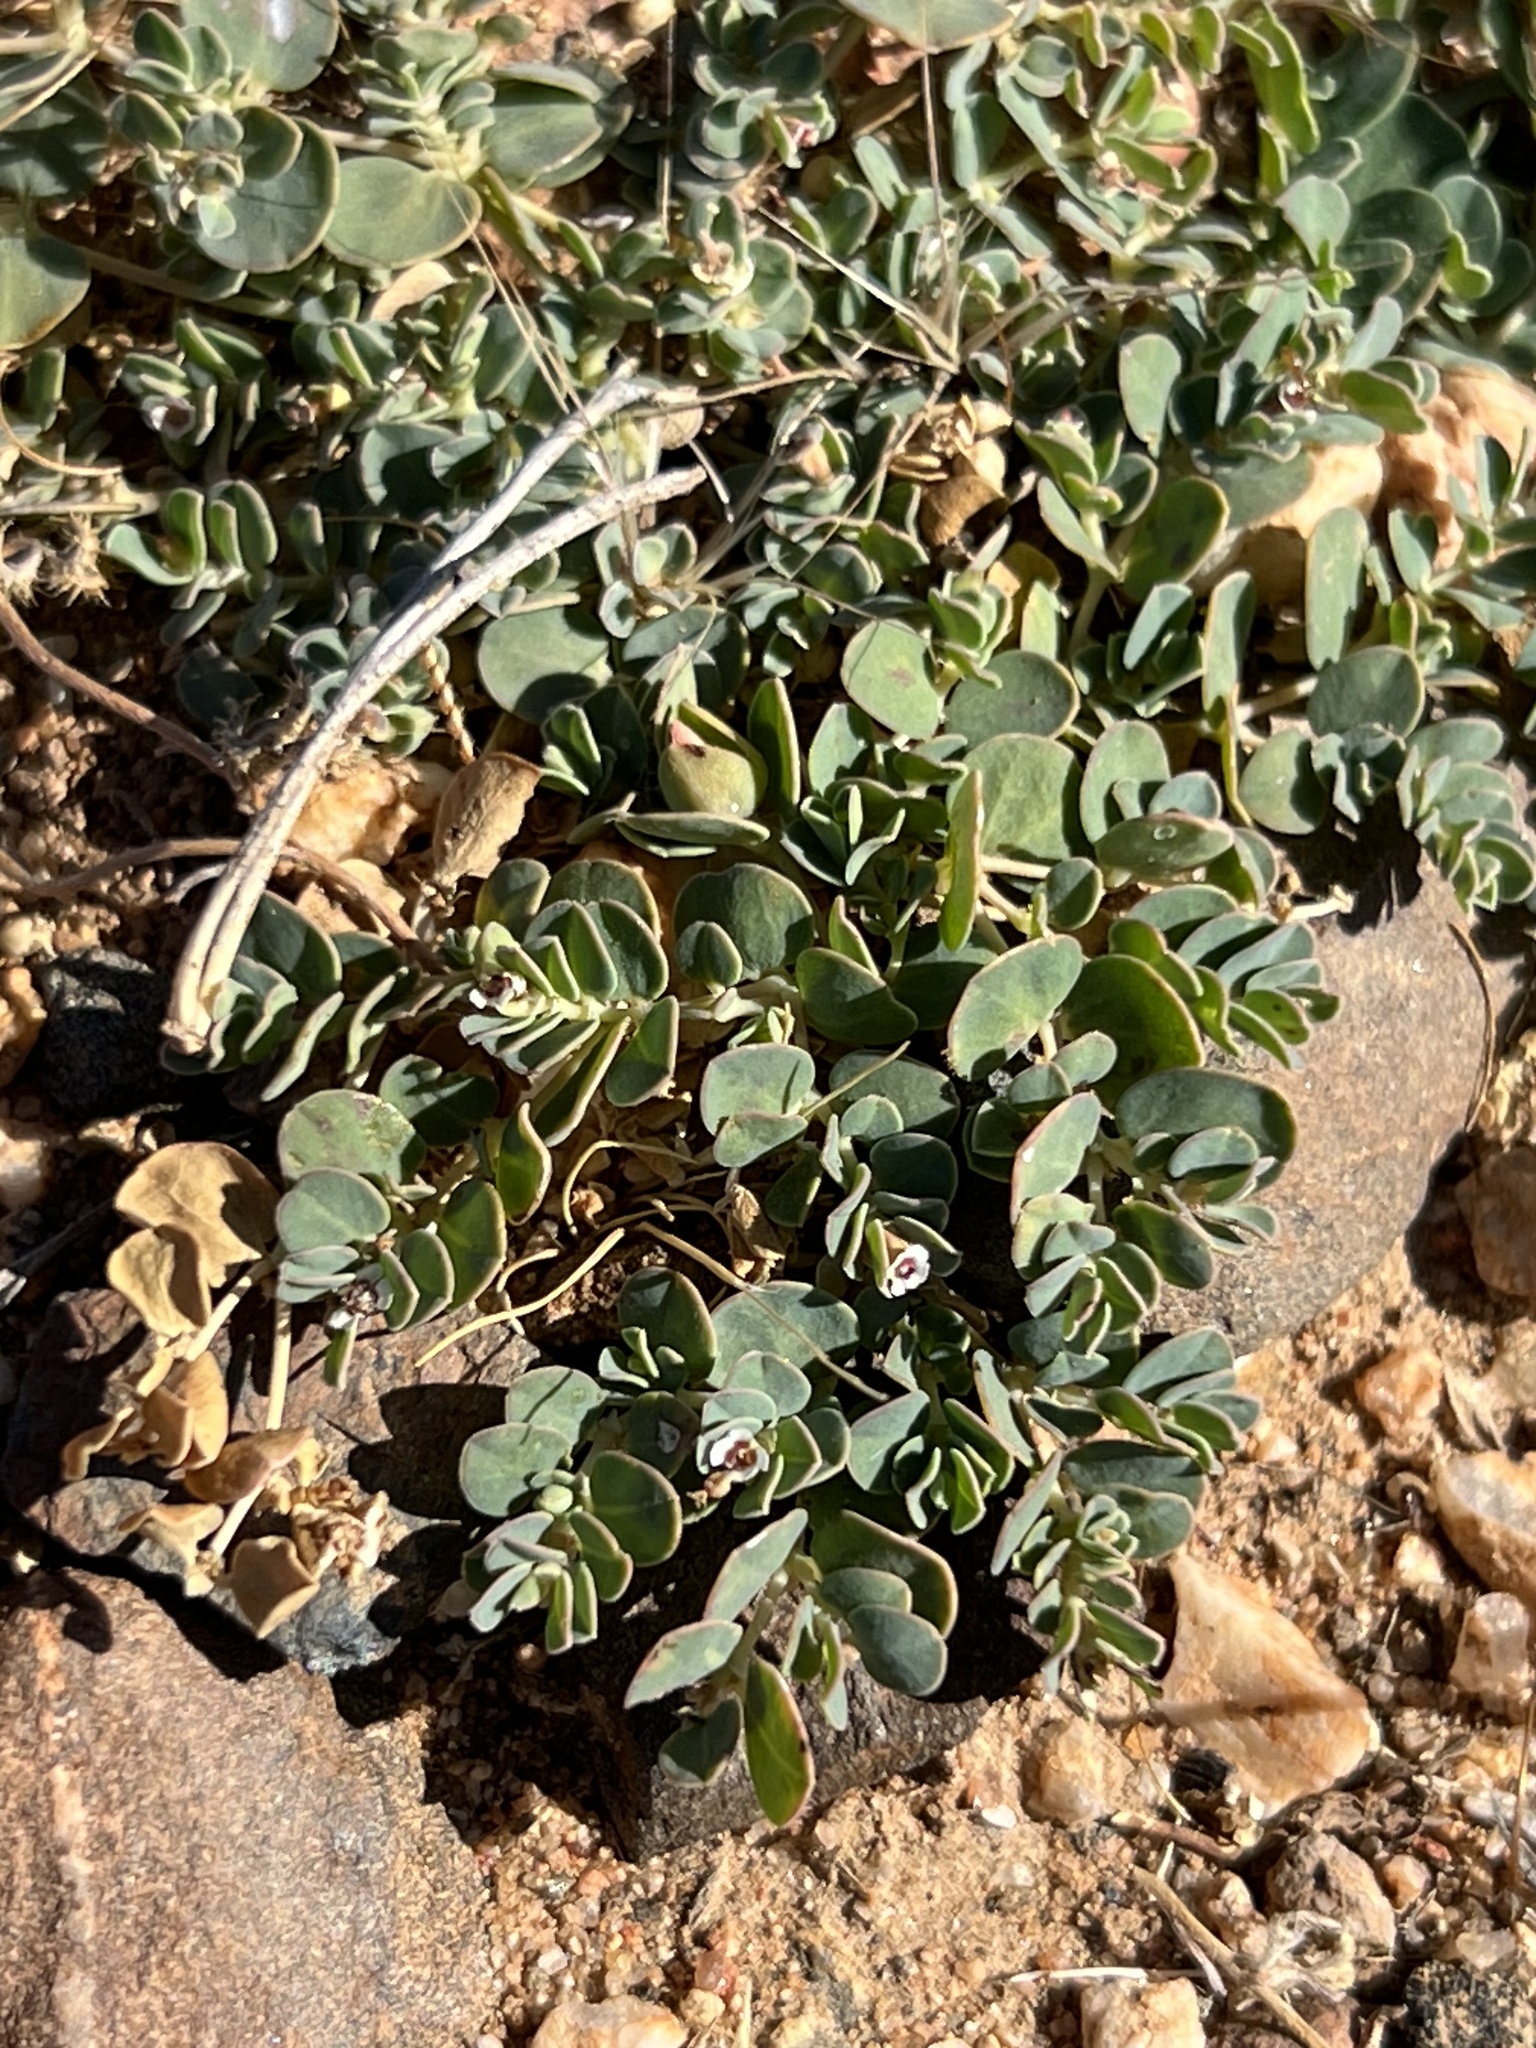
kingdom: Plantae
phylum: Tracheophyta
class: Magnoliopsida
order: Malpighiales
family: Euphorbiaceae
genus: Euphorbia
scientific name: Euphorbia albomarginata
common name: Whitemargin sandmat
